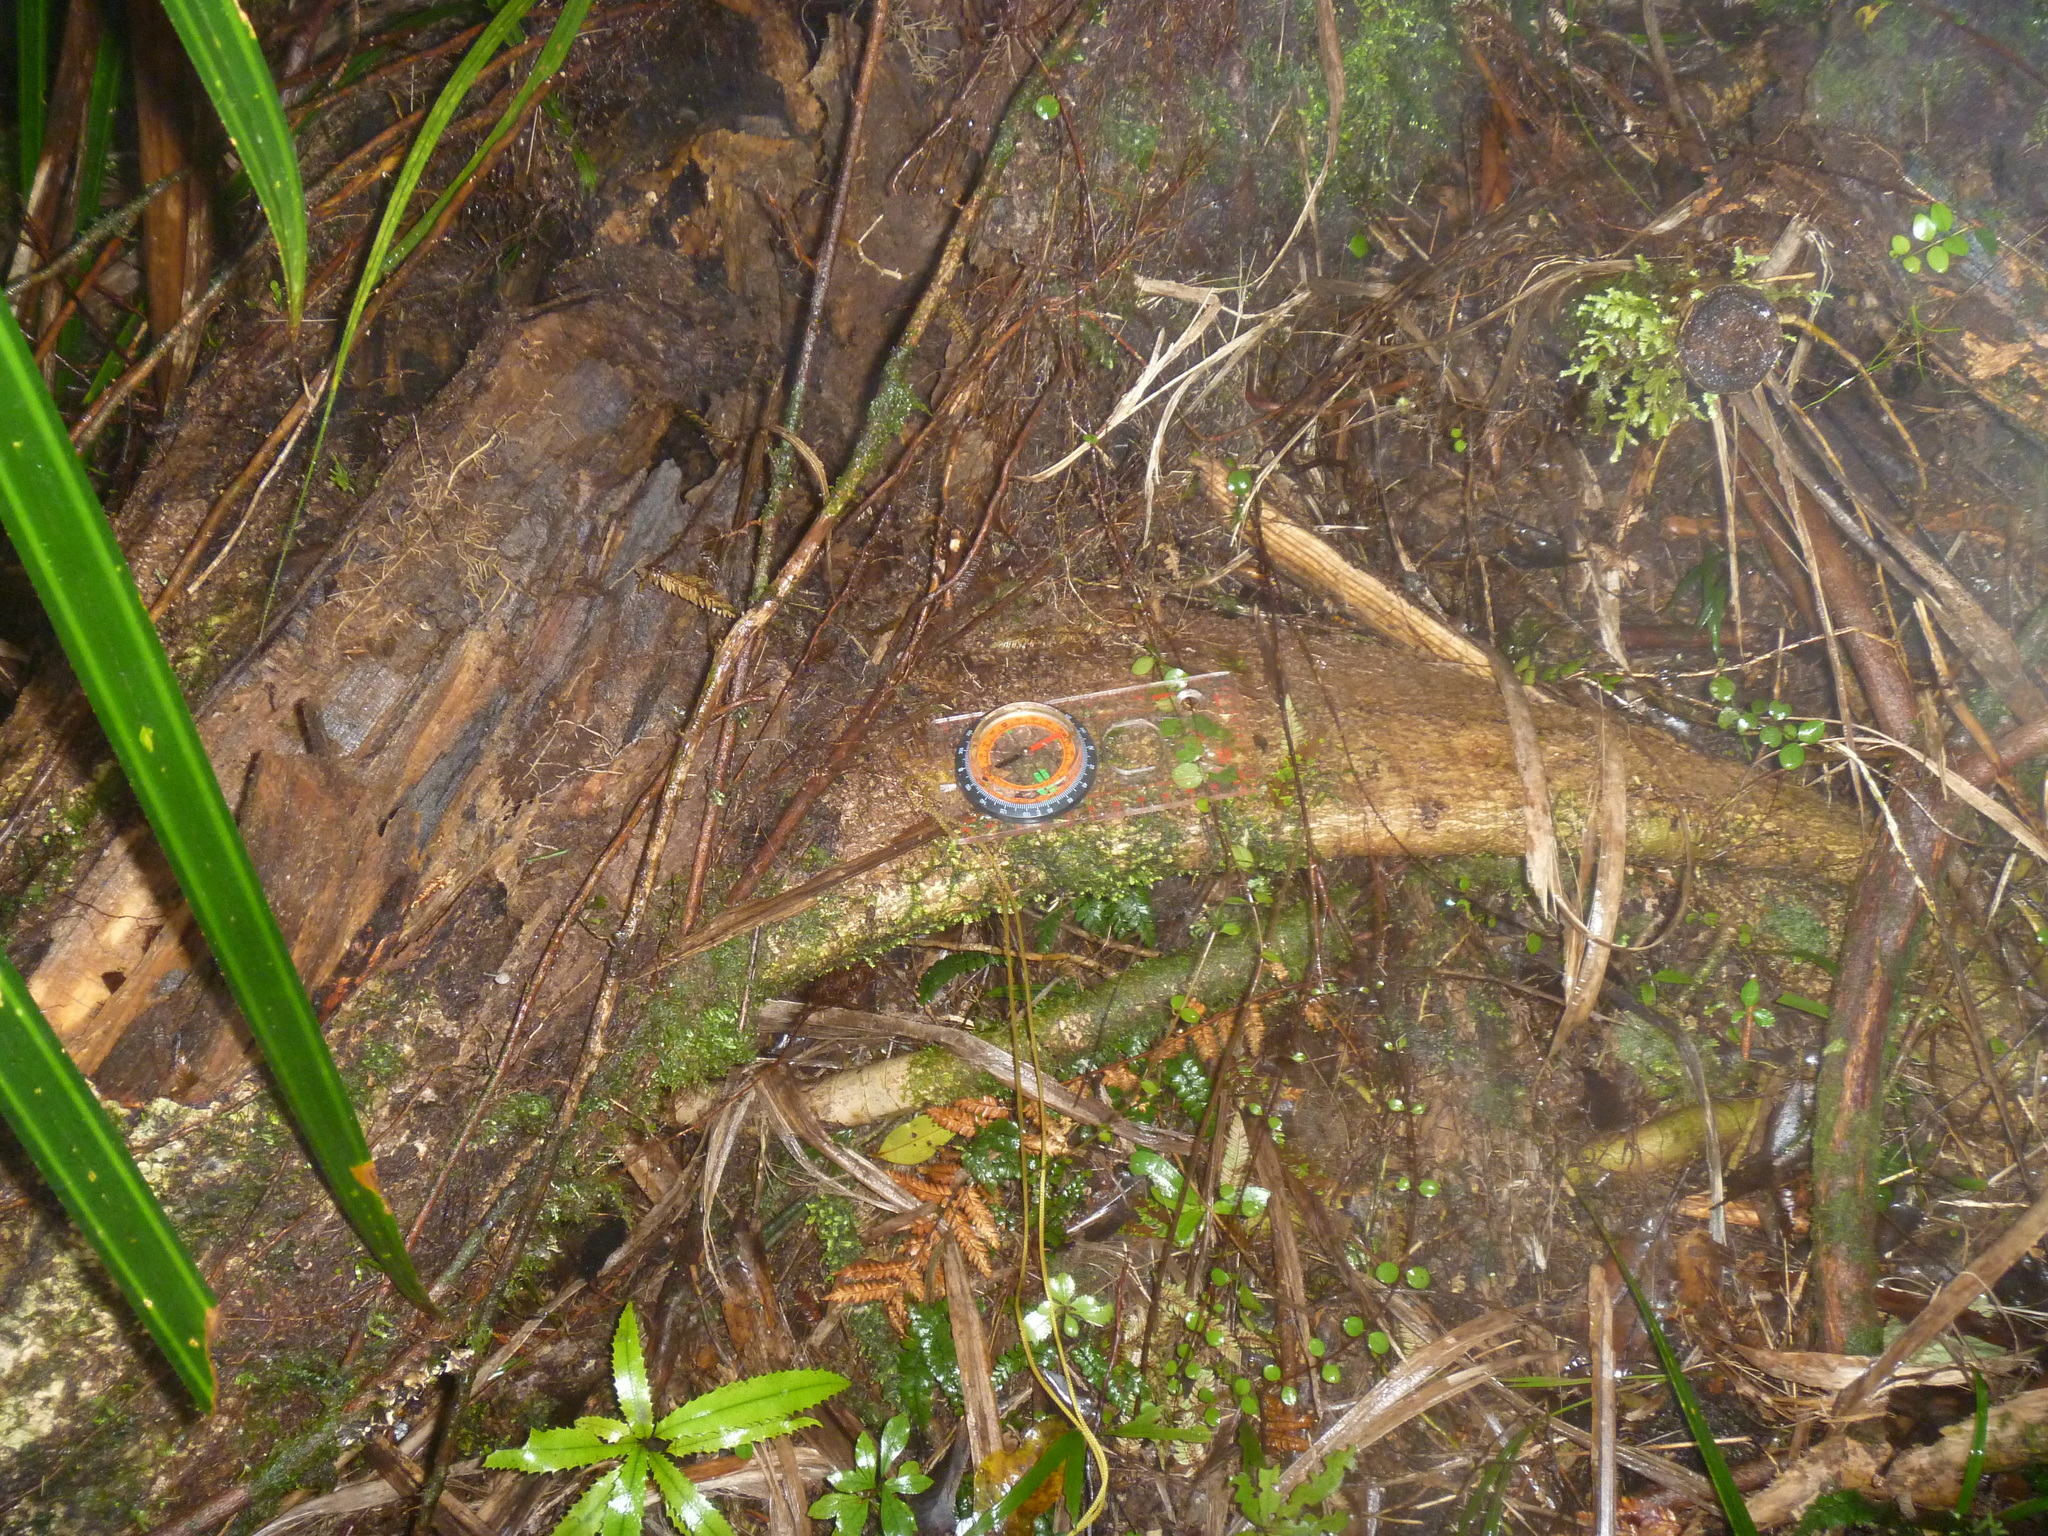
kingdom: Plantae
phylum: Tracheophyta
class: Magnoliopsida
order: Laurales
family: Atherospermataceae
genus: Laurelia
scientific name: Laurelia novae-zelandiae
